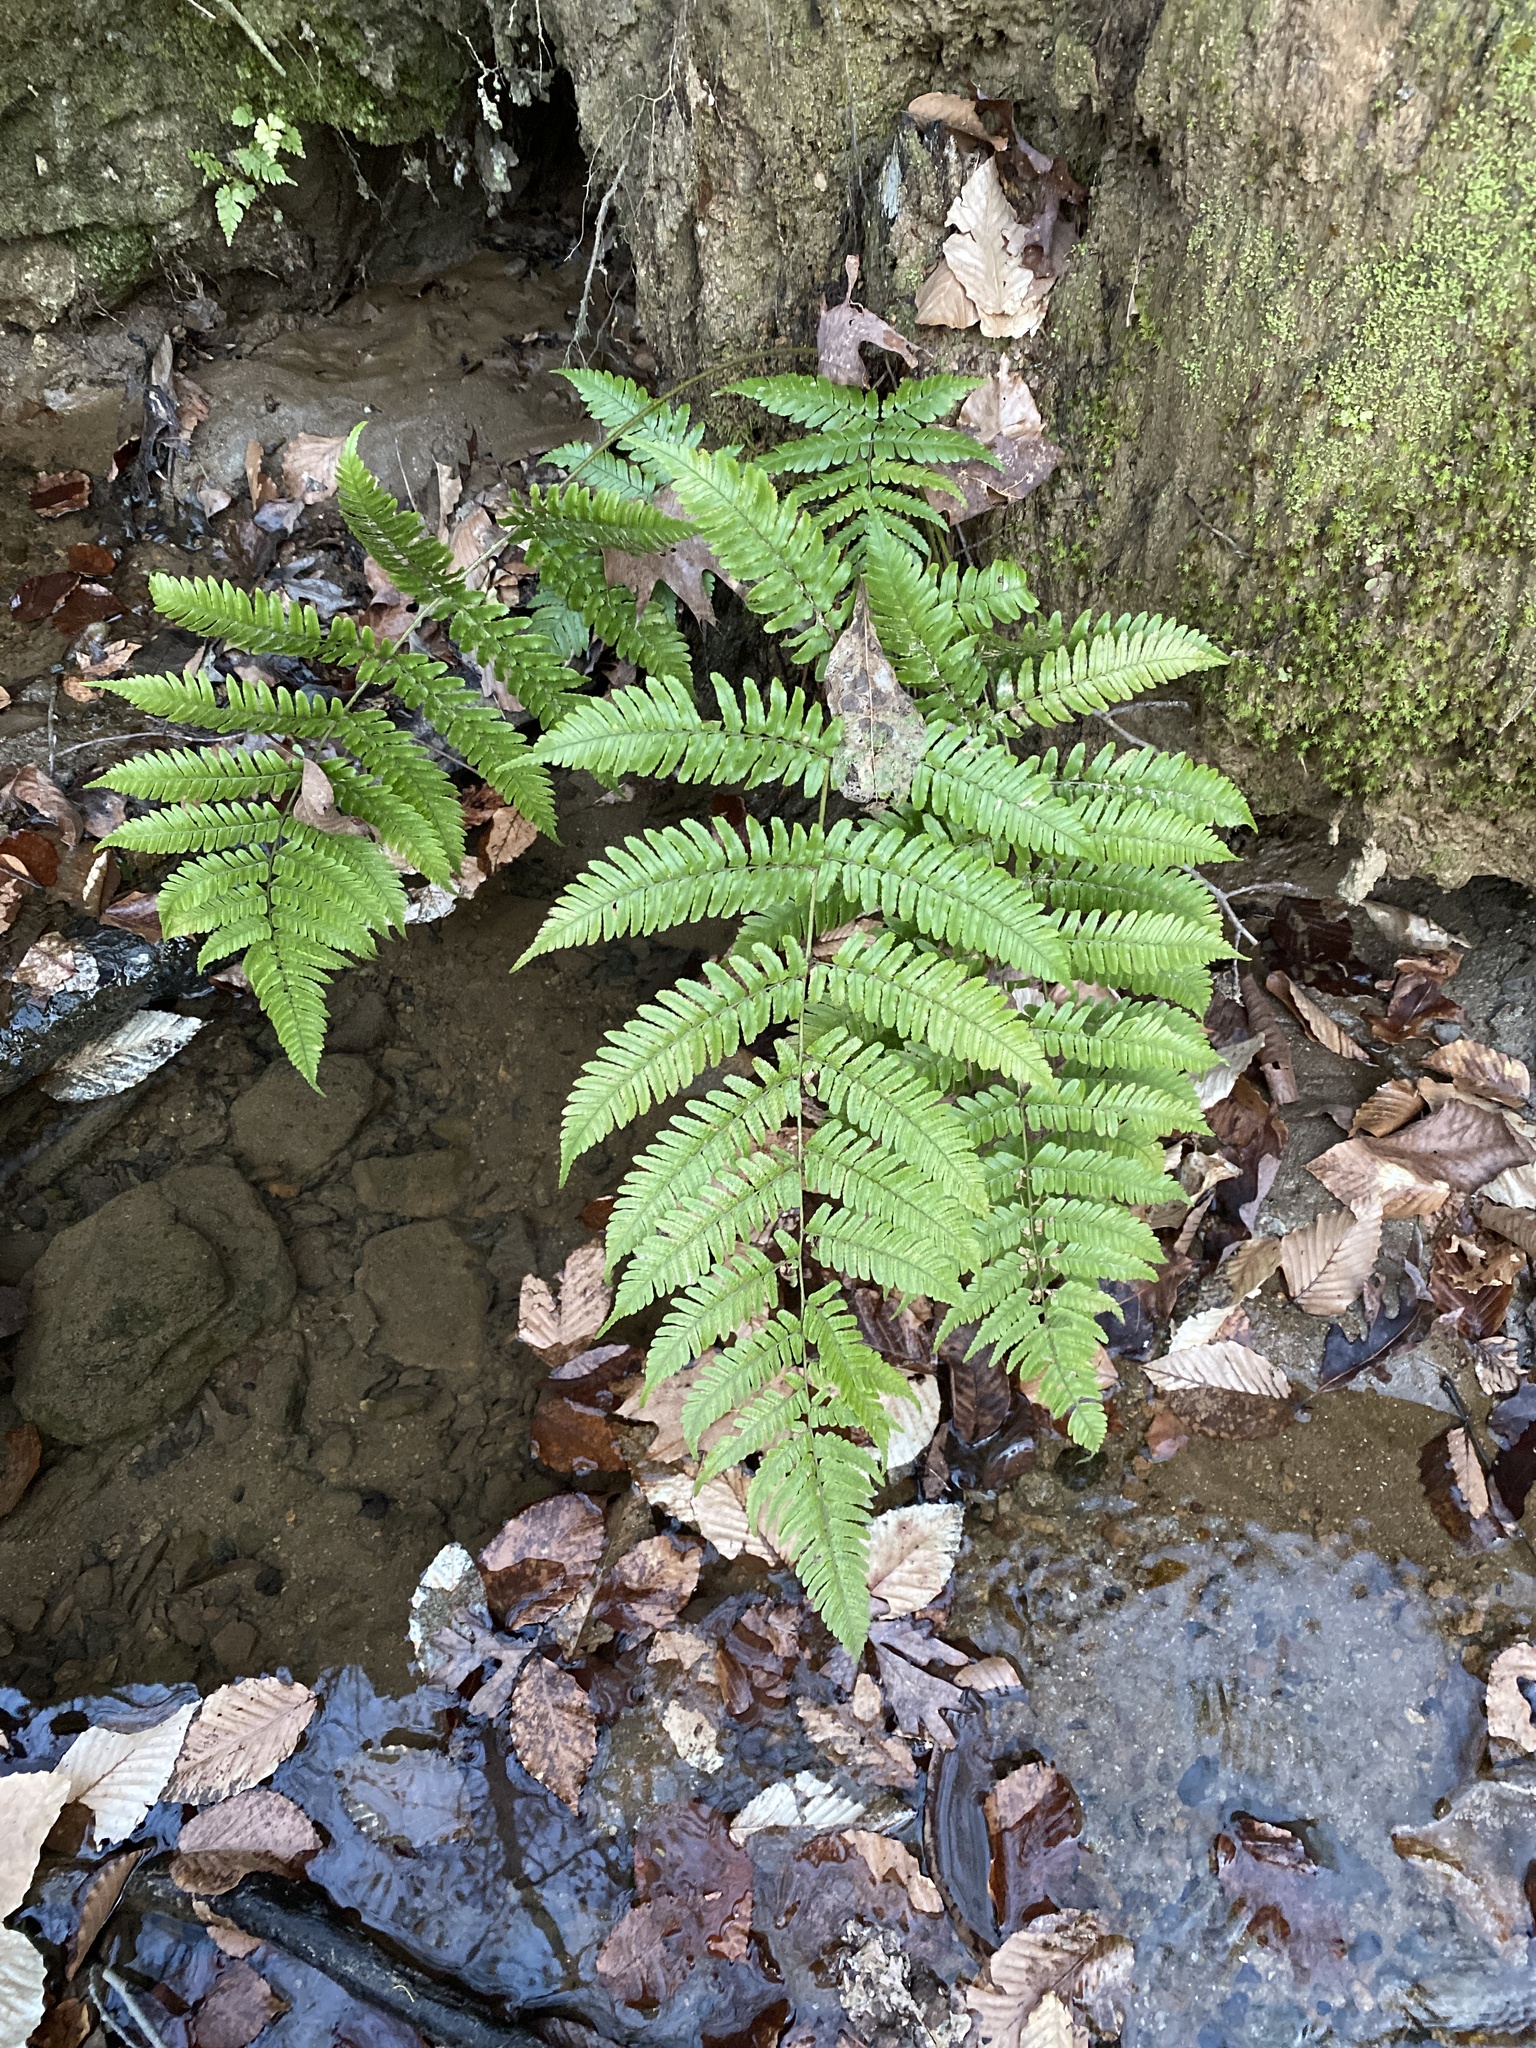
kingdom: Plantae
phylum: Tracheophyta
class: Polypodiopsida
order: Polypodiales
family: Dryopteridaceae
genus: Dryopteris
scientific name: Dryopteris erythrosora
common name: Autumn fern
